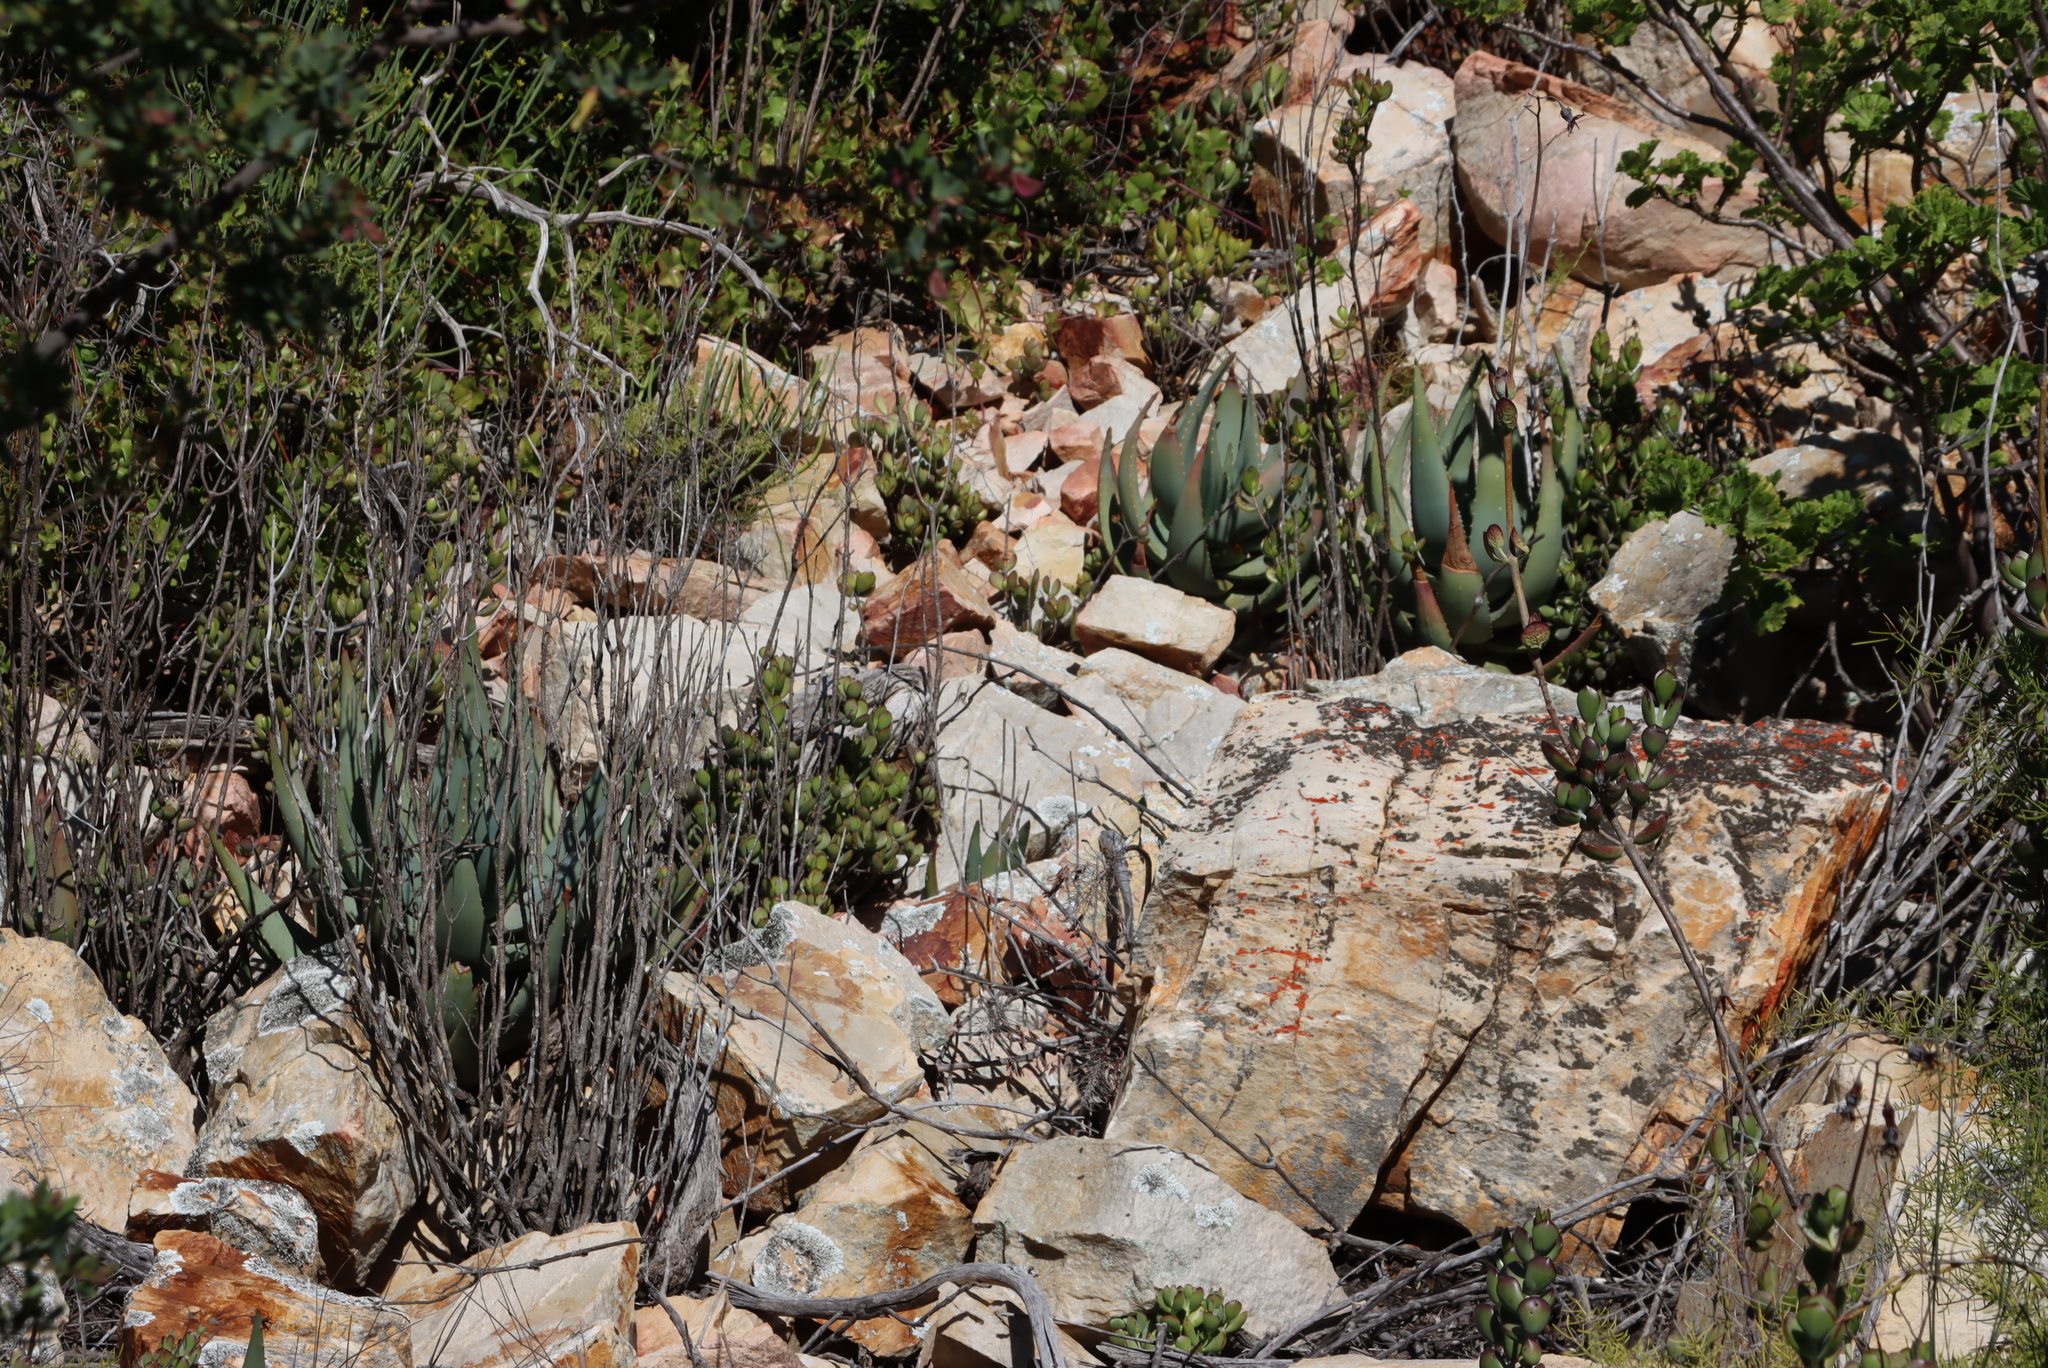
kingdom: Plantae
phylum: Tracheophyta
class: Liliopsida
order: Asparagales
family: Asphodelaceae
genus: Aloe
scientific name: Aloe comptonii
